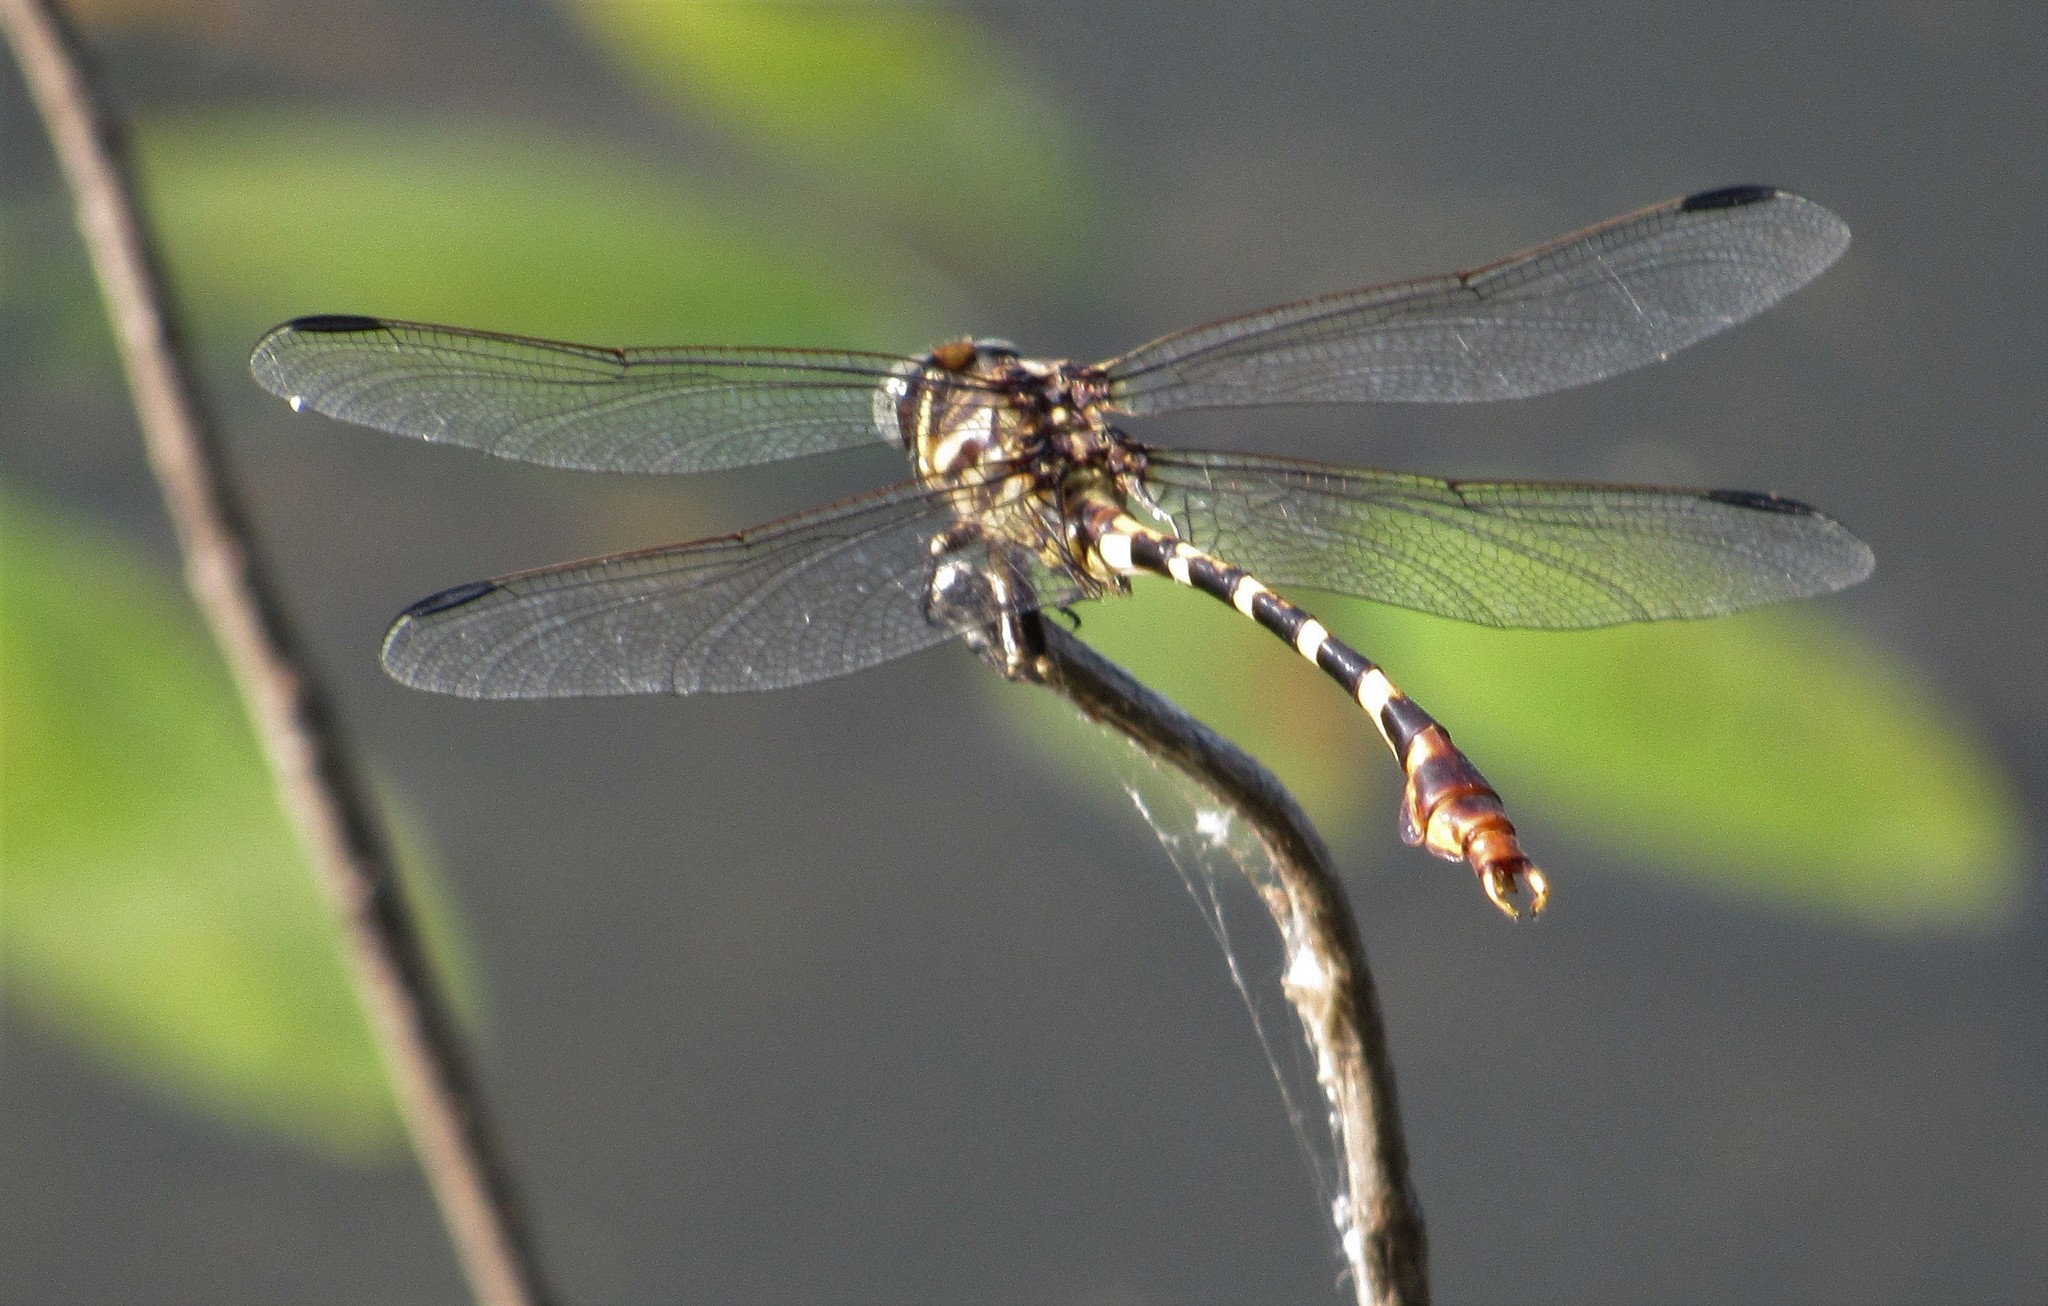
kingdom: Animalia
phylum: Arthropoda
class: Insecta
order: Odonata
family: Gomphidae
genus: Phyllogomphoides
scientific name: Phyllogomphoides stigmatus
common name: Four-striped leaftail
